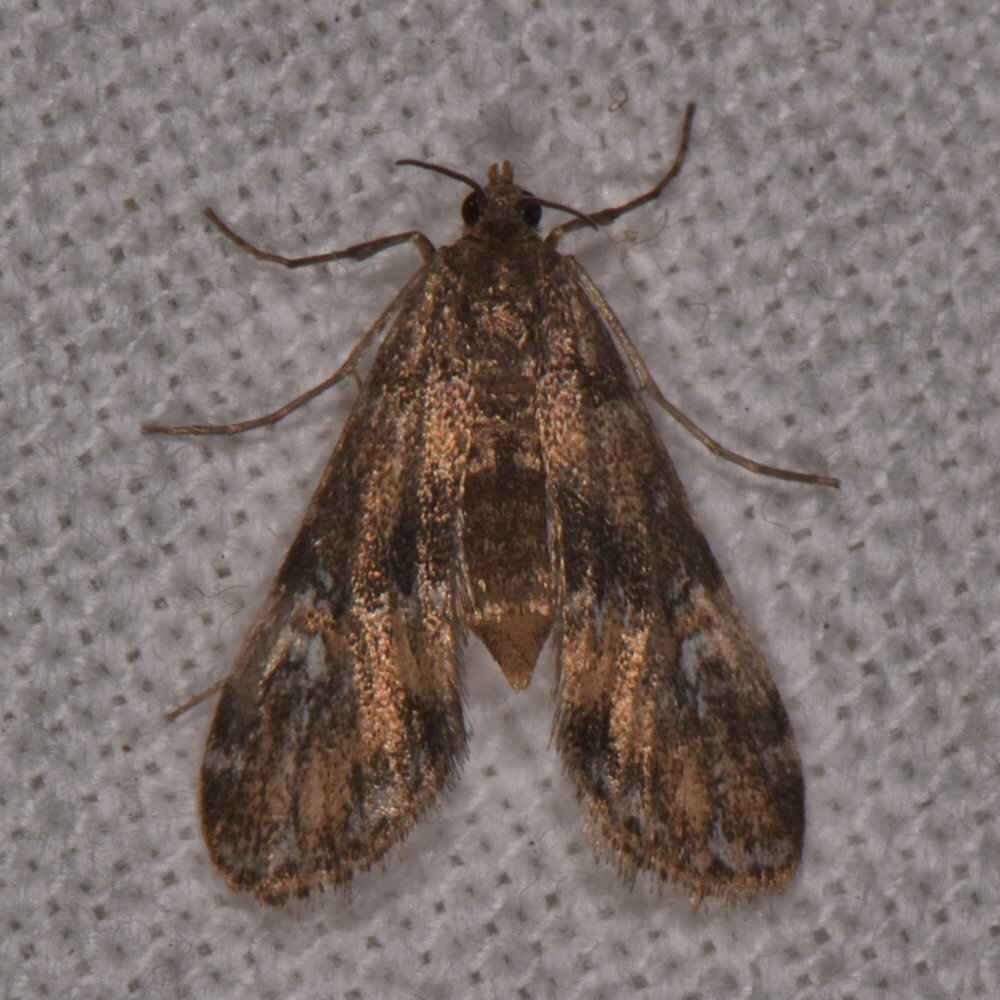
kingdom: Animalia
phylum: Arthropoda
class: Insecta
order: Lepidoptera
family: Crambidae
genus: Elophila
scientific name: Elophila obliteralis
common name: Waterlily leafcutter moth
